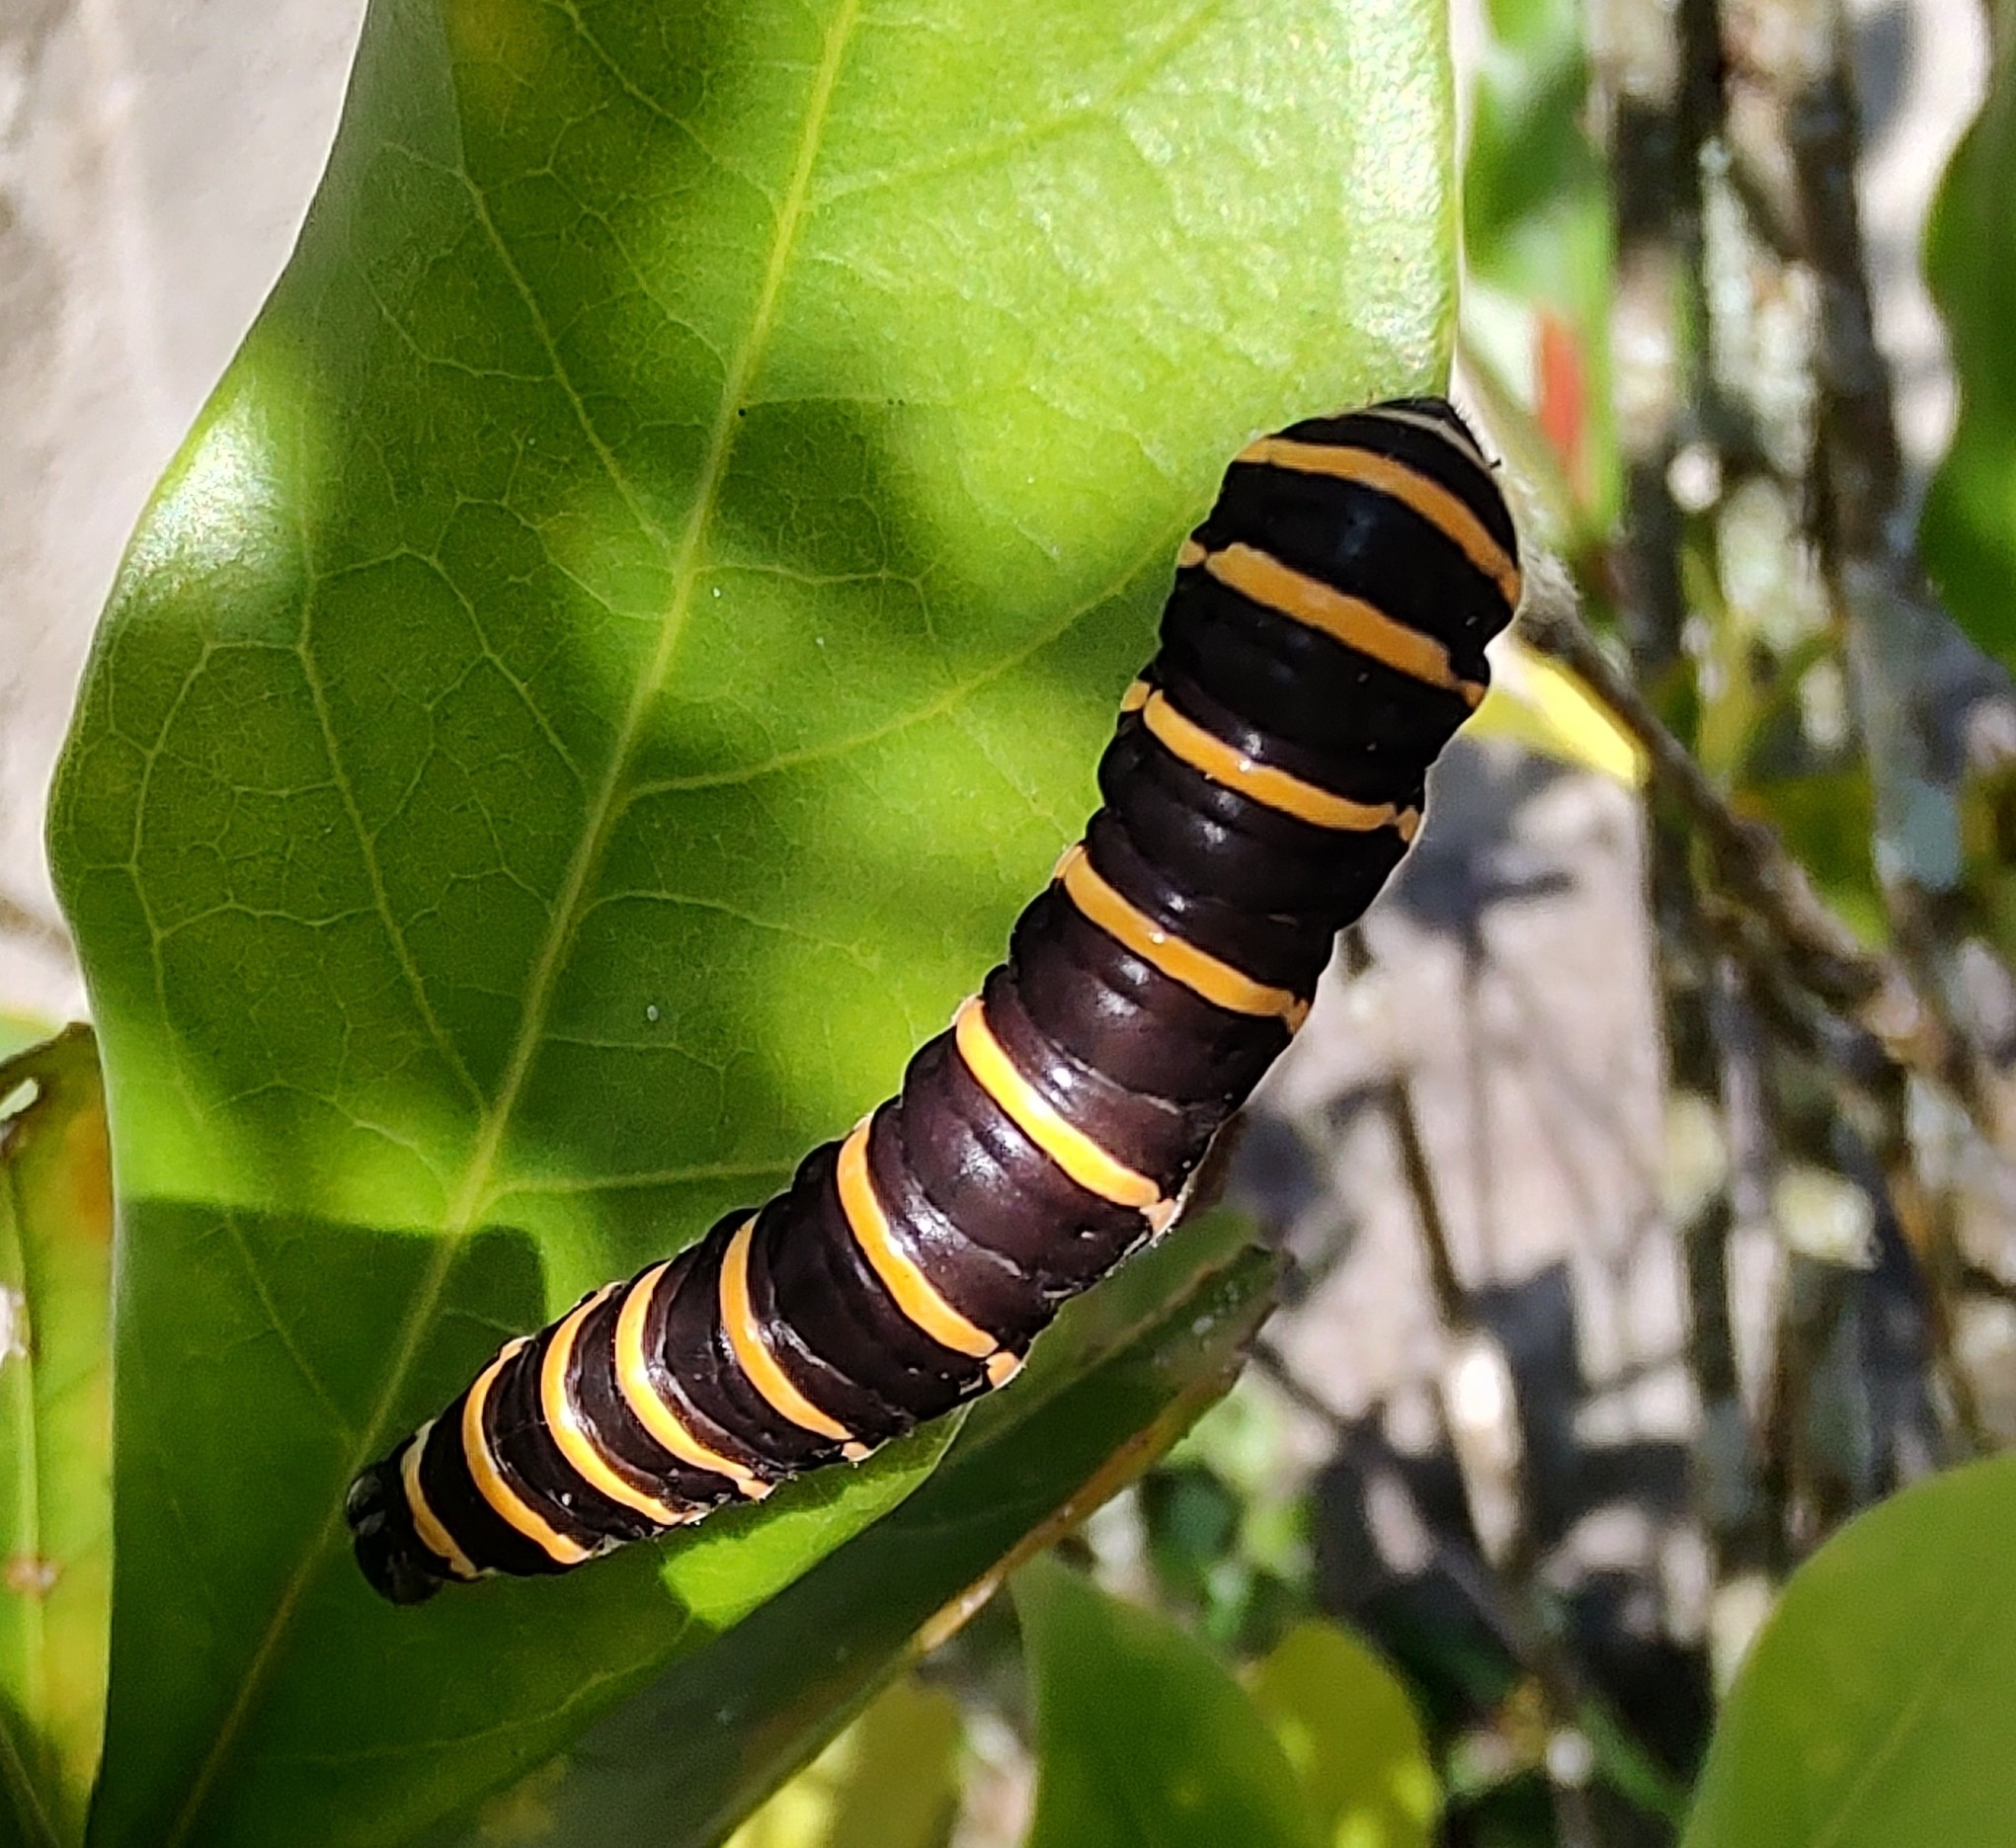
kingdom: Animalia
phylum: Arthropoda
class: Insecta
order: Lepidoptera
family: Nymphalidae
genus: Methona
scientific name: Methona themisto
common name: Themisto amberwing
